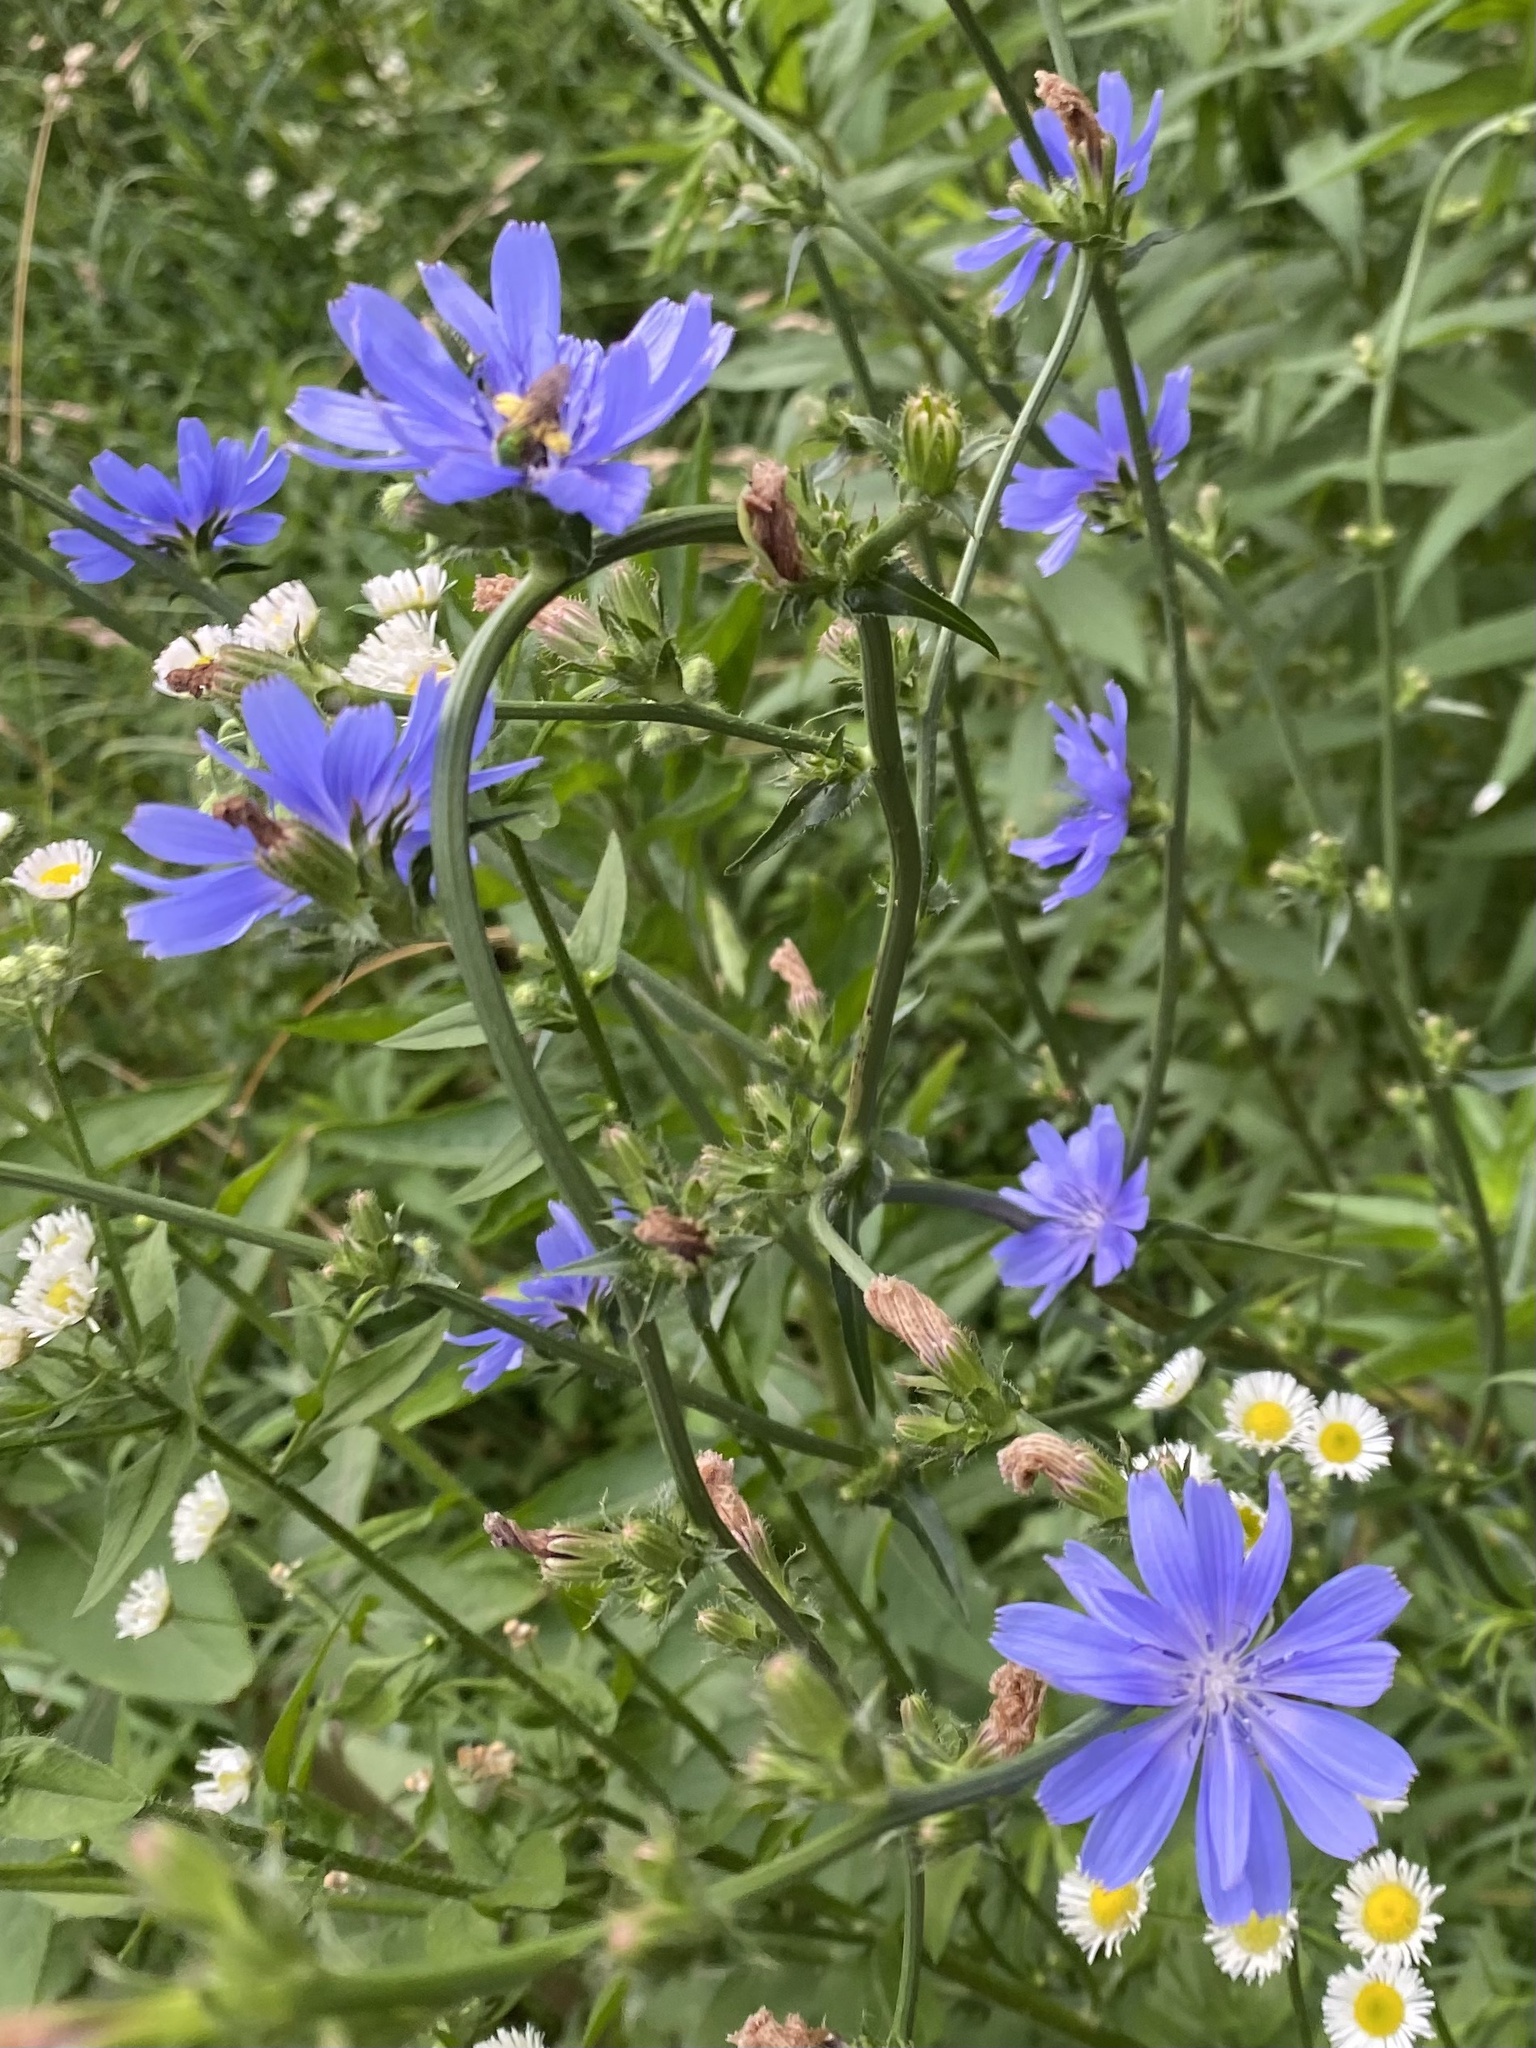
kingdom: Plantae
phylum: Tracheophyta
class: Magnoliopsida
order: Asterales
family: Asteraceae
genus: Cichorium
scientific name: Cichorium intybus
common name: Chicory
